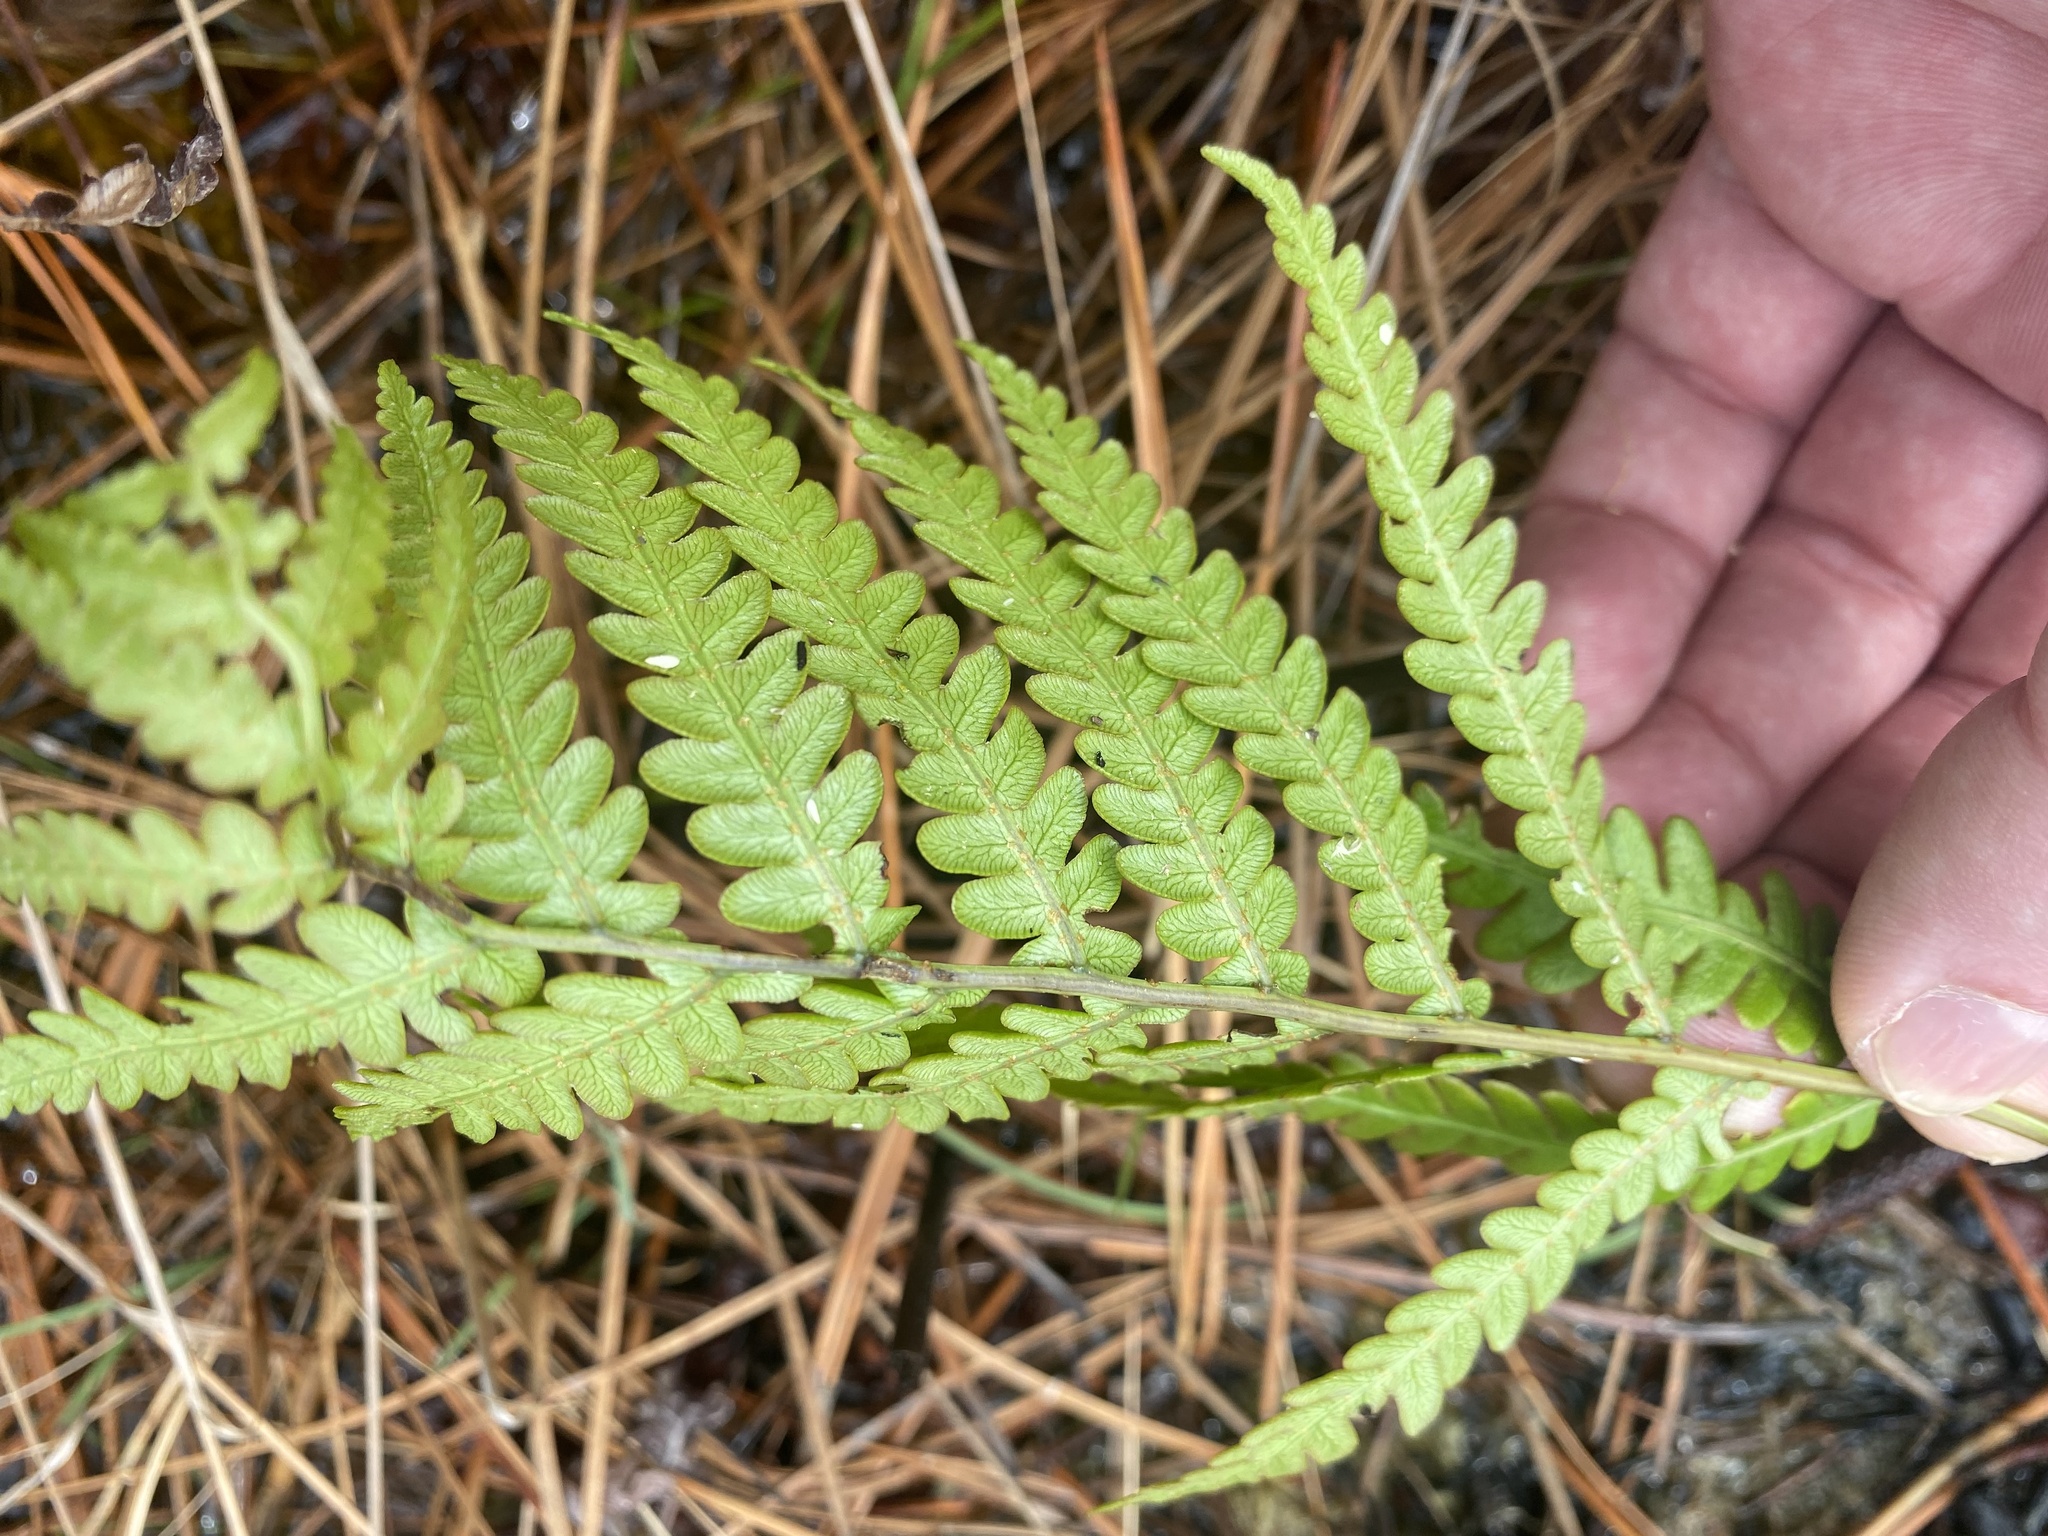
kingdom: Plantae
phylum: Tracheophyta
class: Polypodiopsida
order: Polypodiales
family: Blechnaceae
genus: Anchistea
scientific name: Anchistea virginica
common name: Virginia chain fern
